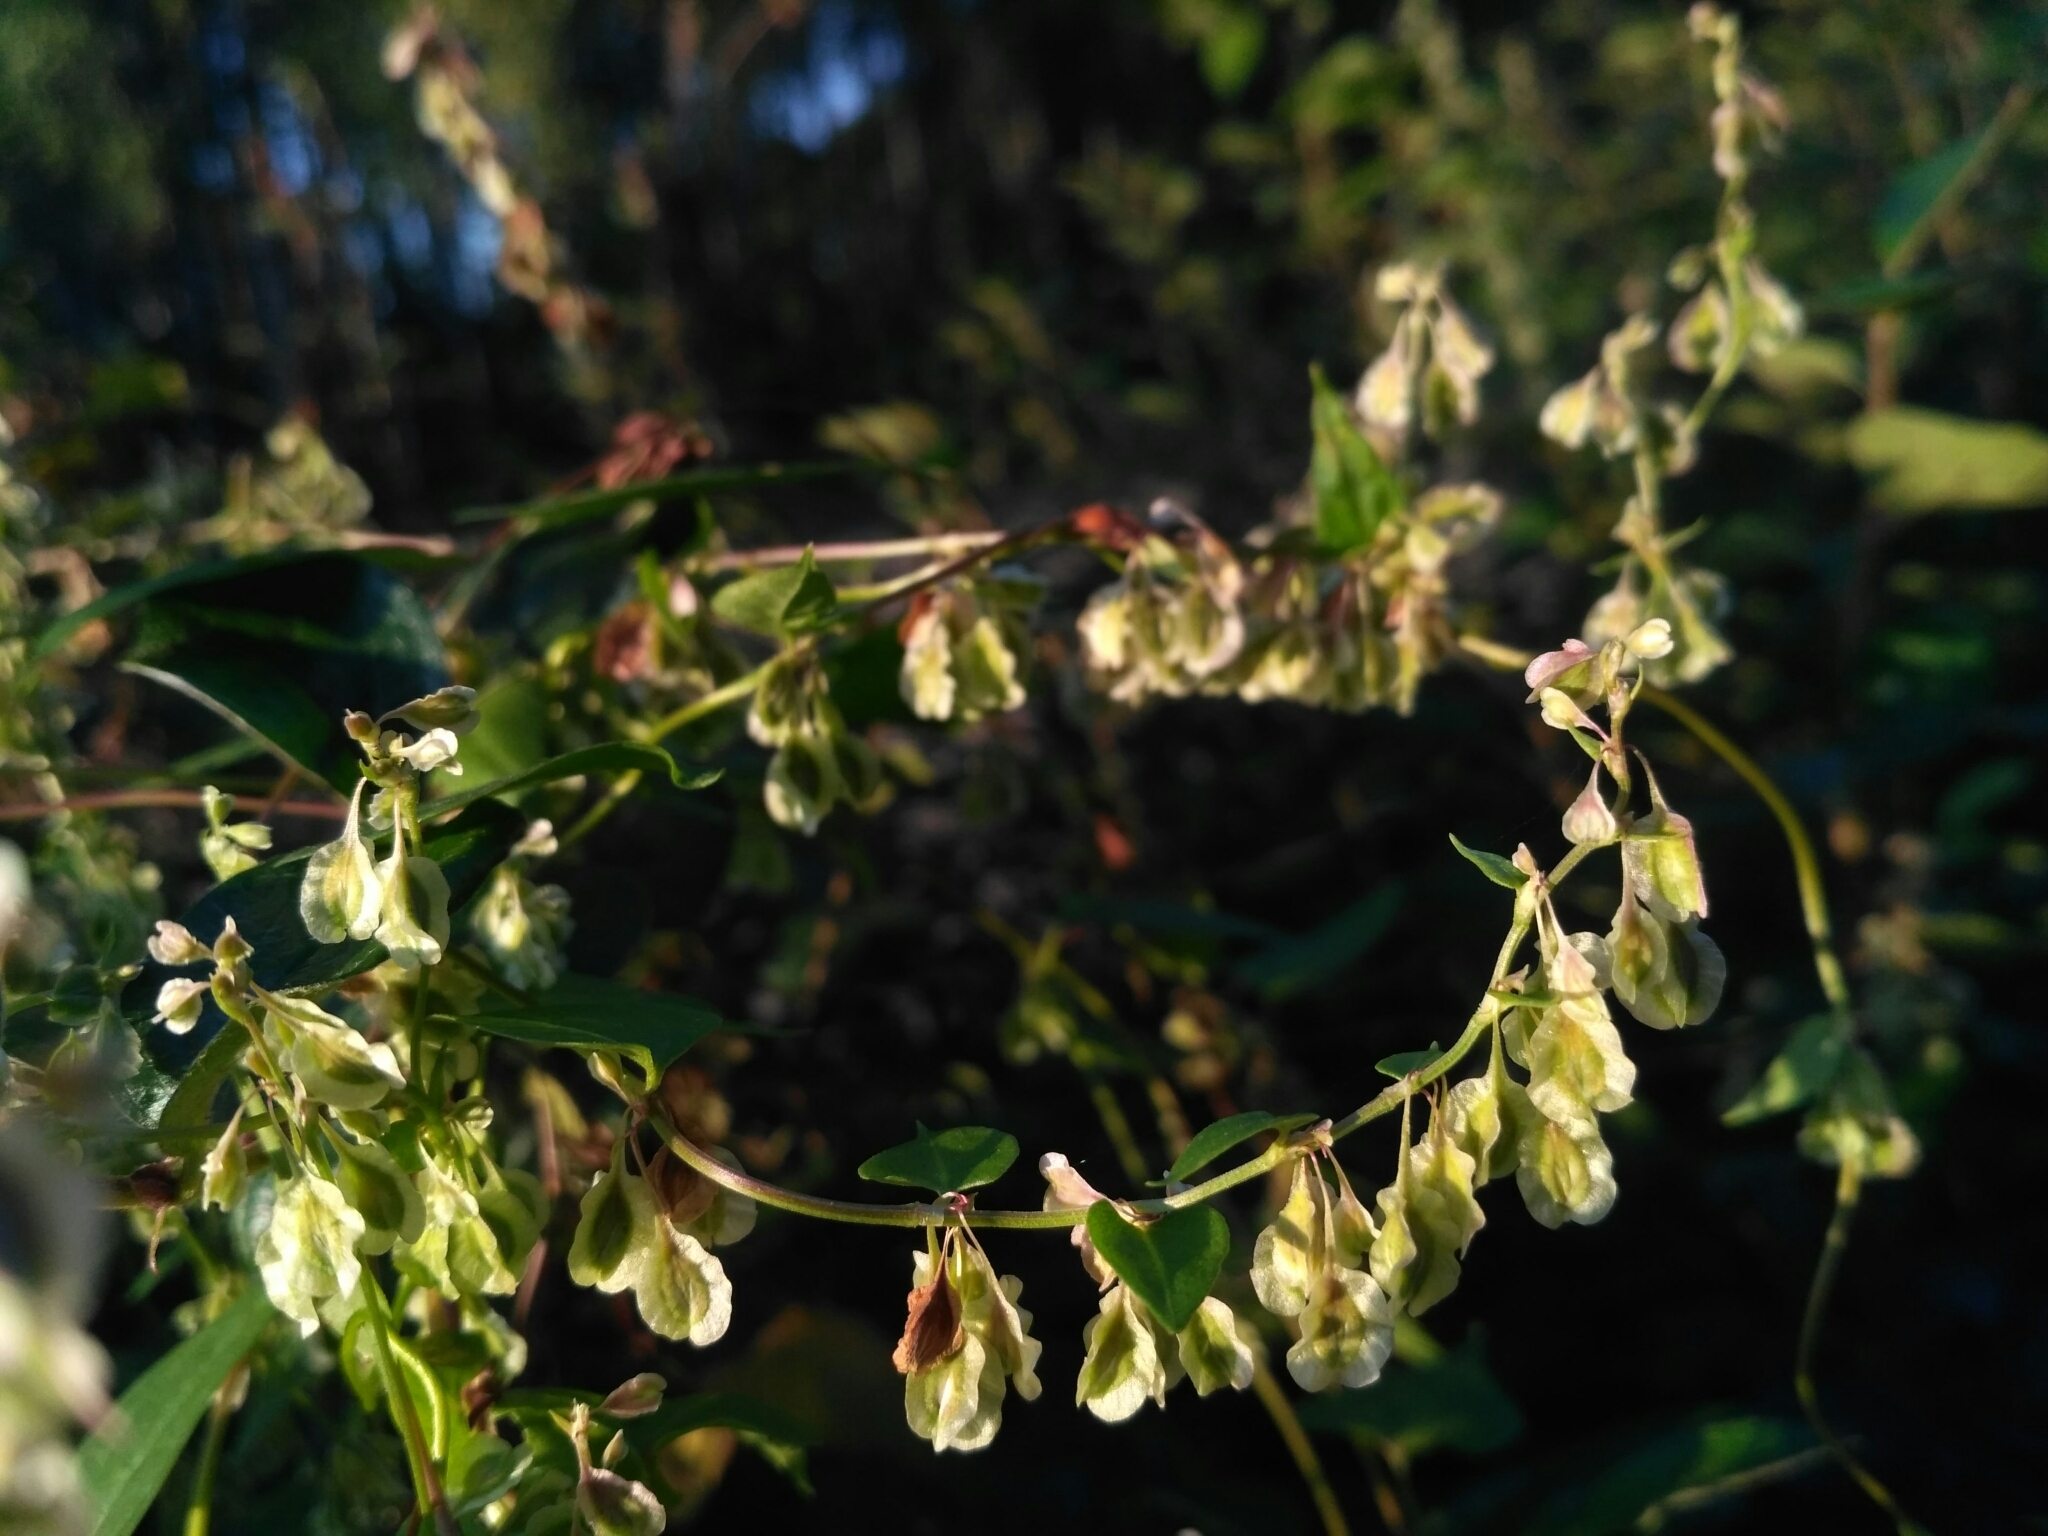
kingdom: Plantae
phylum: Tracheophyta
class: Magnoliopsida
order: Caryophyllales
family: Polygonaceae
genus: Fallopia
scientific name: Fallopia dumetorum
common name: Copse-bindweed
